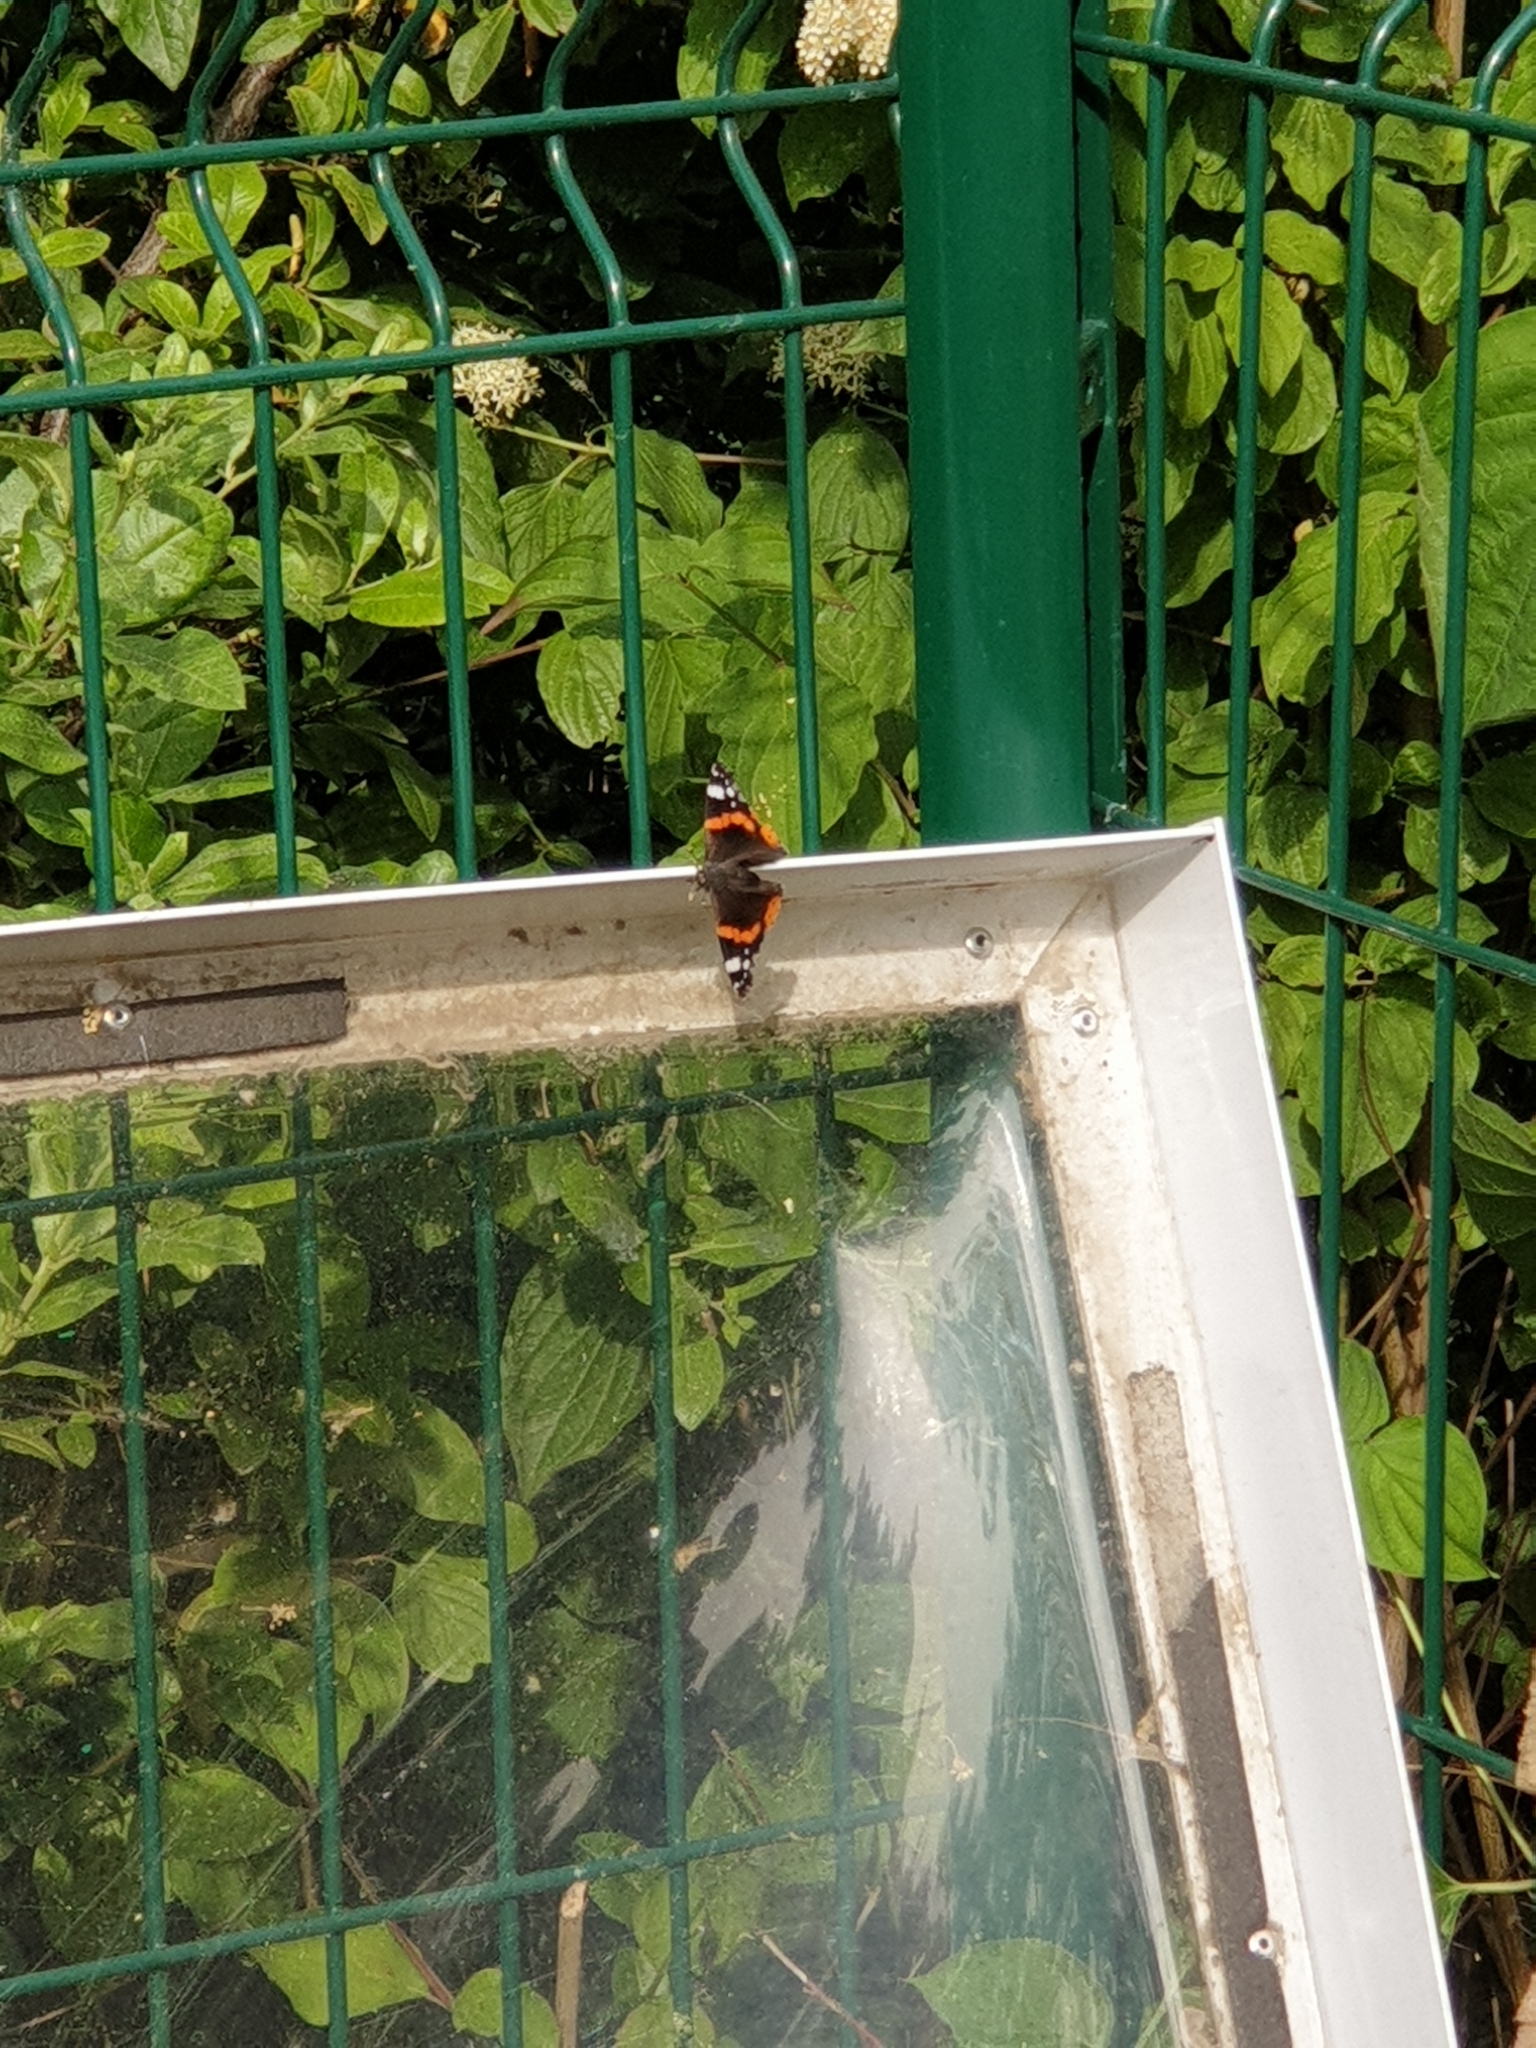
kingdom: Animalia
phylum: Arthropoda
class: Insecta
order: Lepidoptera
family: Nymphalidae
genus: Vanessa
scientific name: Vanessa atalanta
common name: Red admiral
